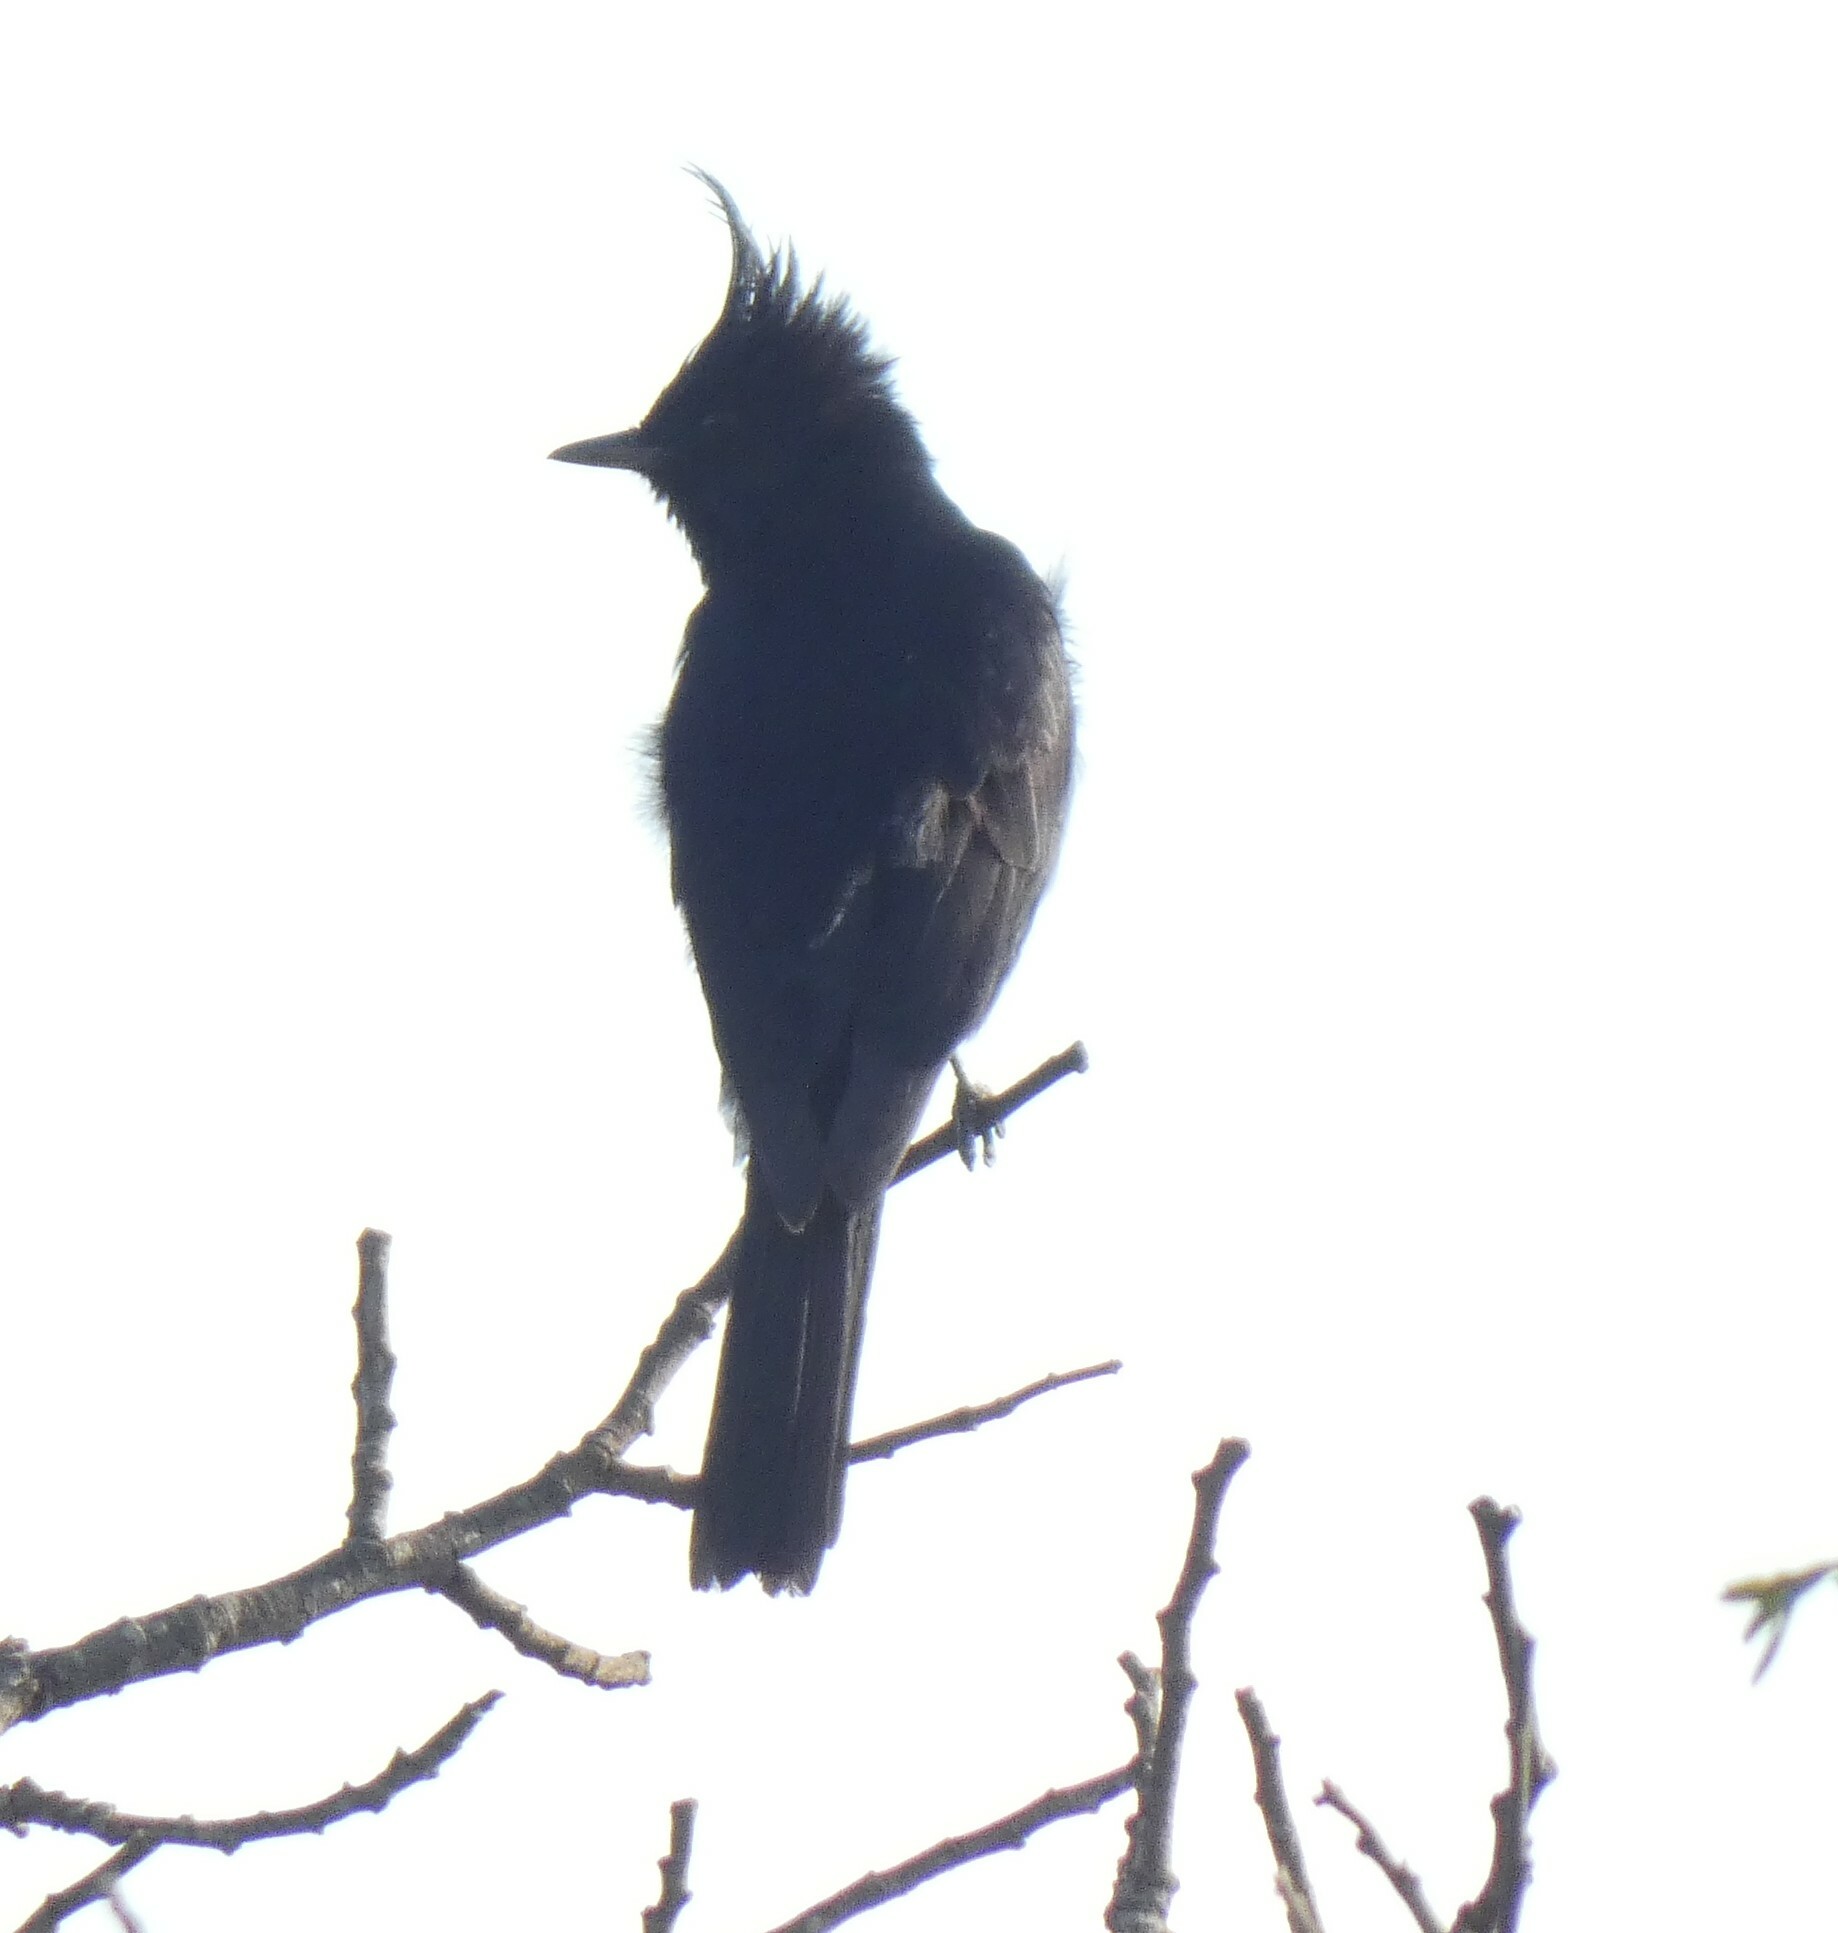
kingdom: Animalia
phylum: Chordata
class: Aves
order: Passeriformes
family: Tyrannidae
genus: Knipolegus
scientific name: Knipolegus lophotes
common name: Crested black tyrant
